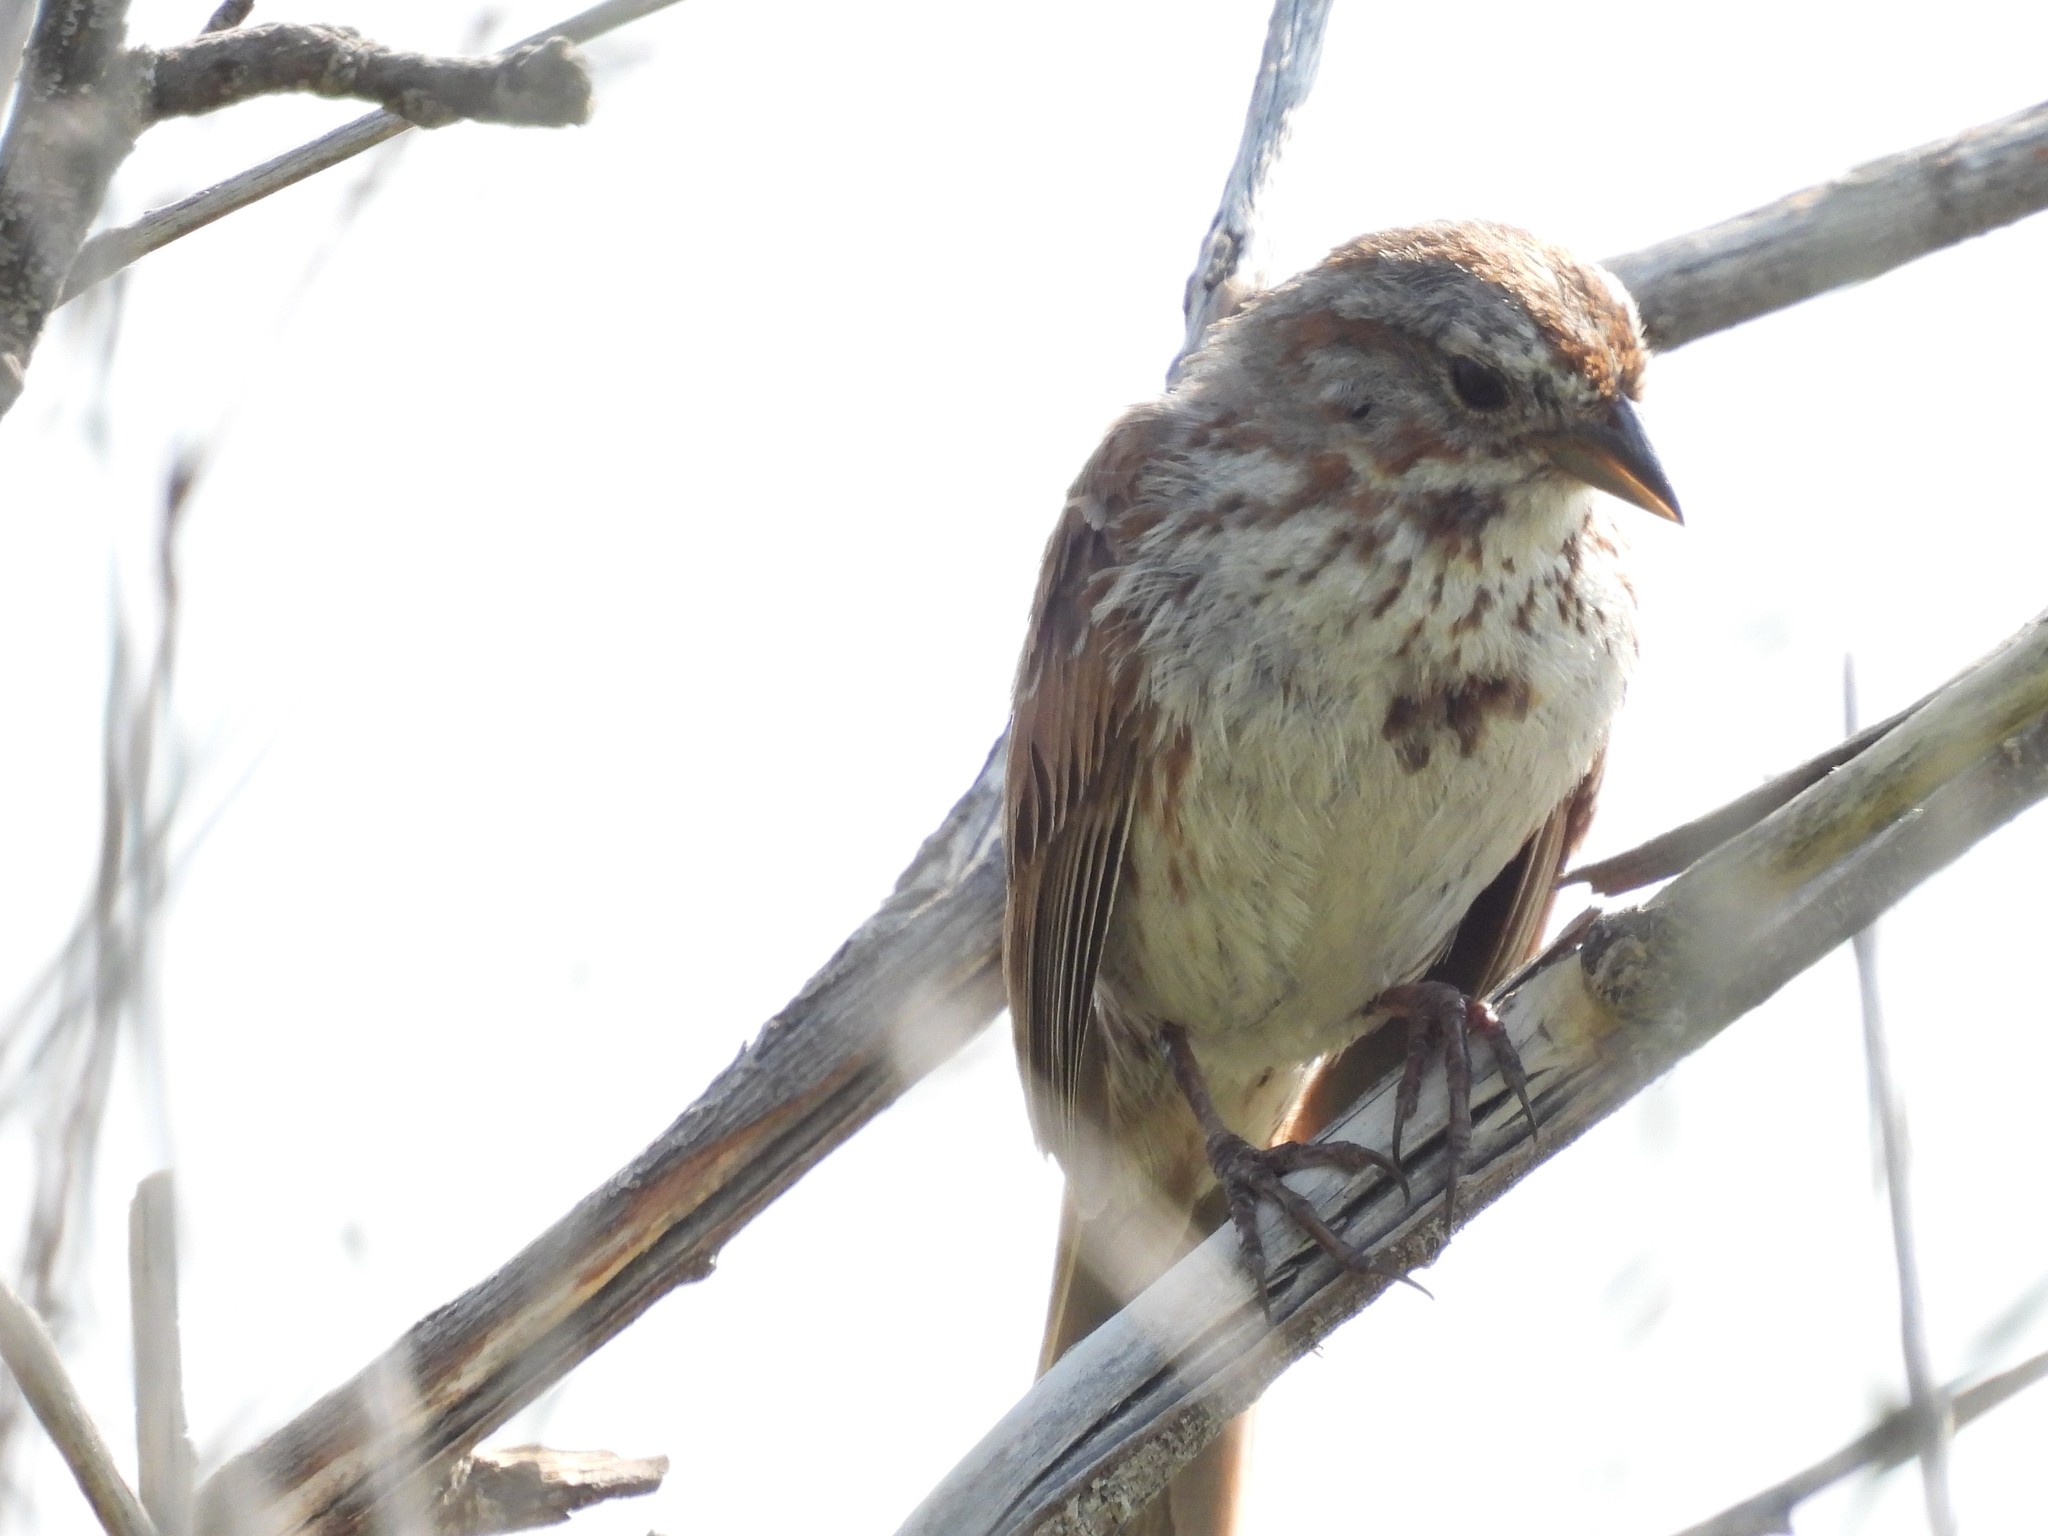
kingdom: Animalia
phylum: Chordata
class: Aves
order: Passeriformes
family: Passerellidae
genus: Melospiza
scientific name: Melospiza melodia
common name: Song sparrow
